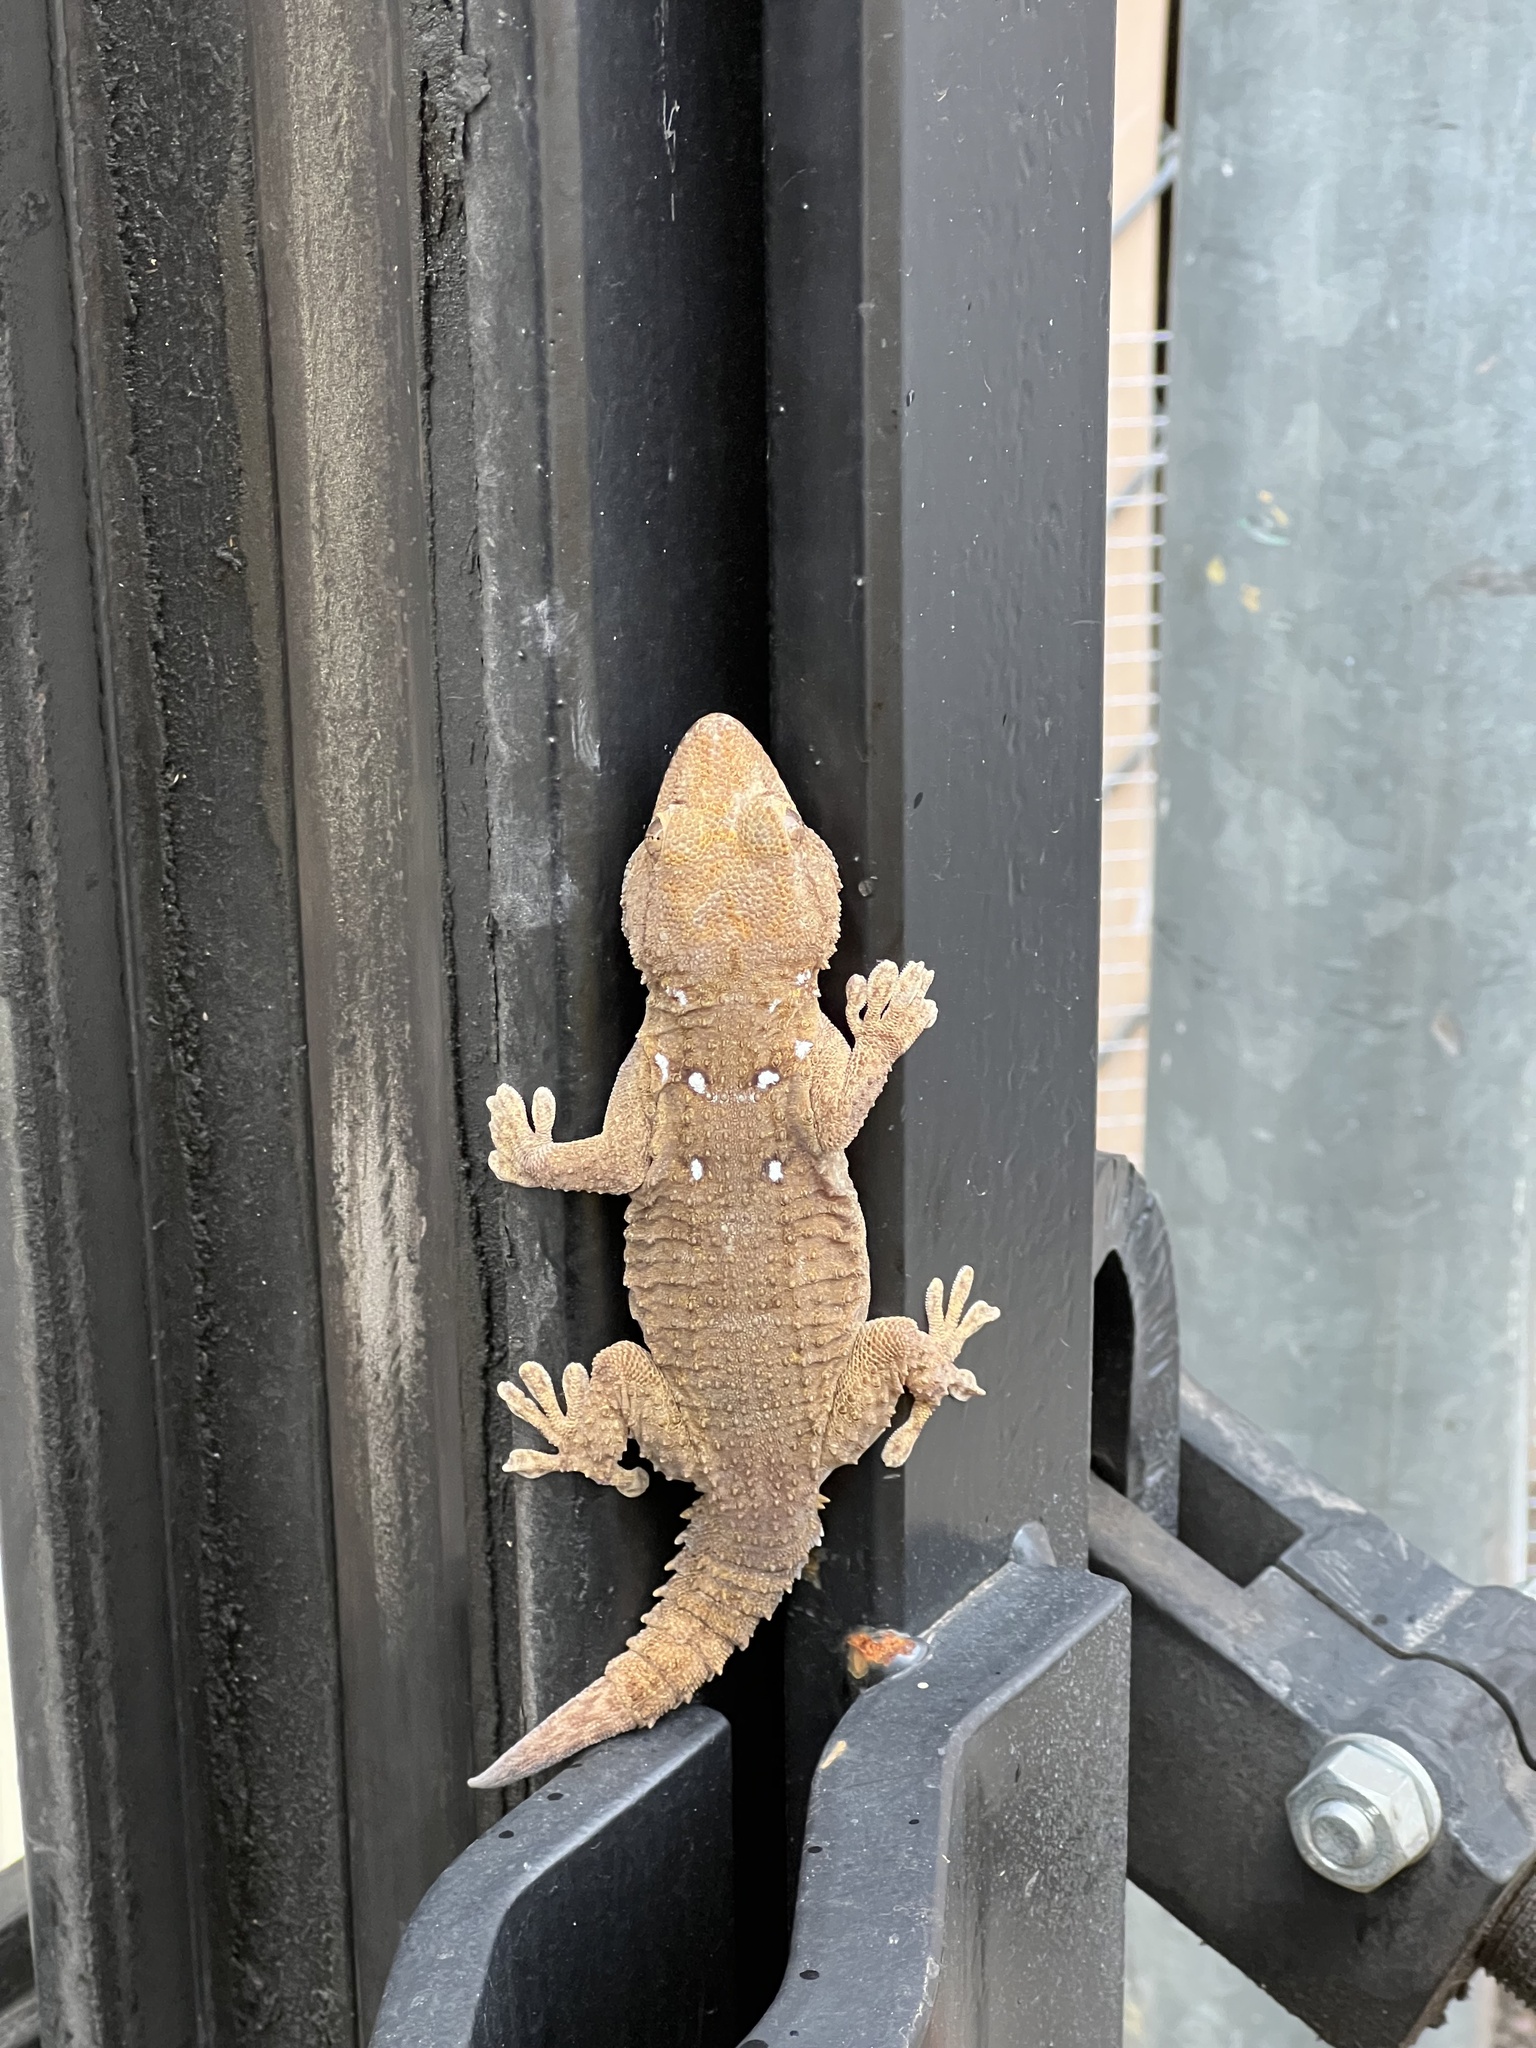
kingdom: Animalia
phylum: Chordata
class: Squamata
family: Phyllodactylidae
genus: Tarentola
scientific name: Tarentola annularis
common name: White-spotted wall gecko
